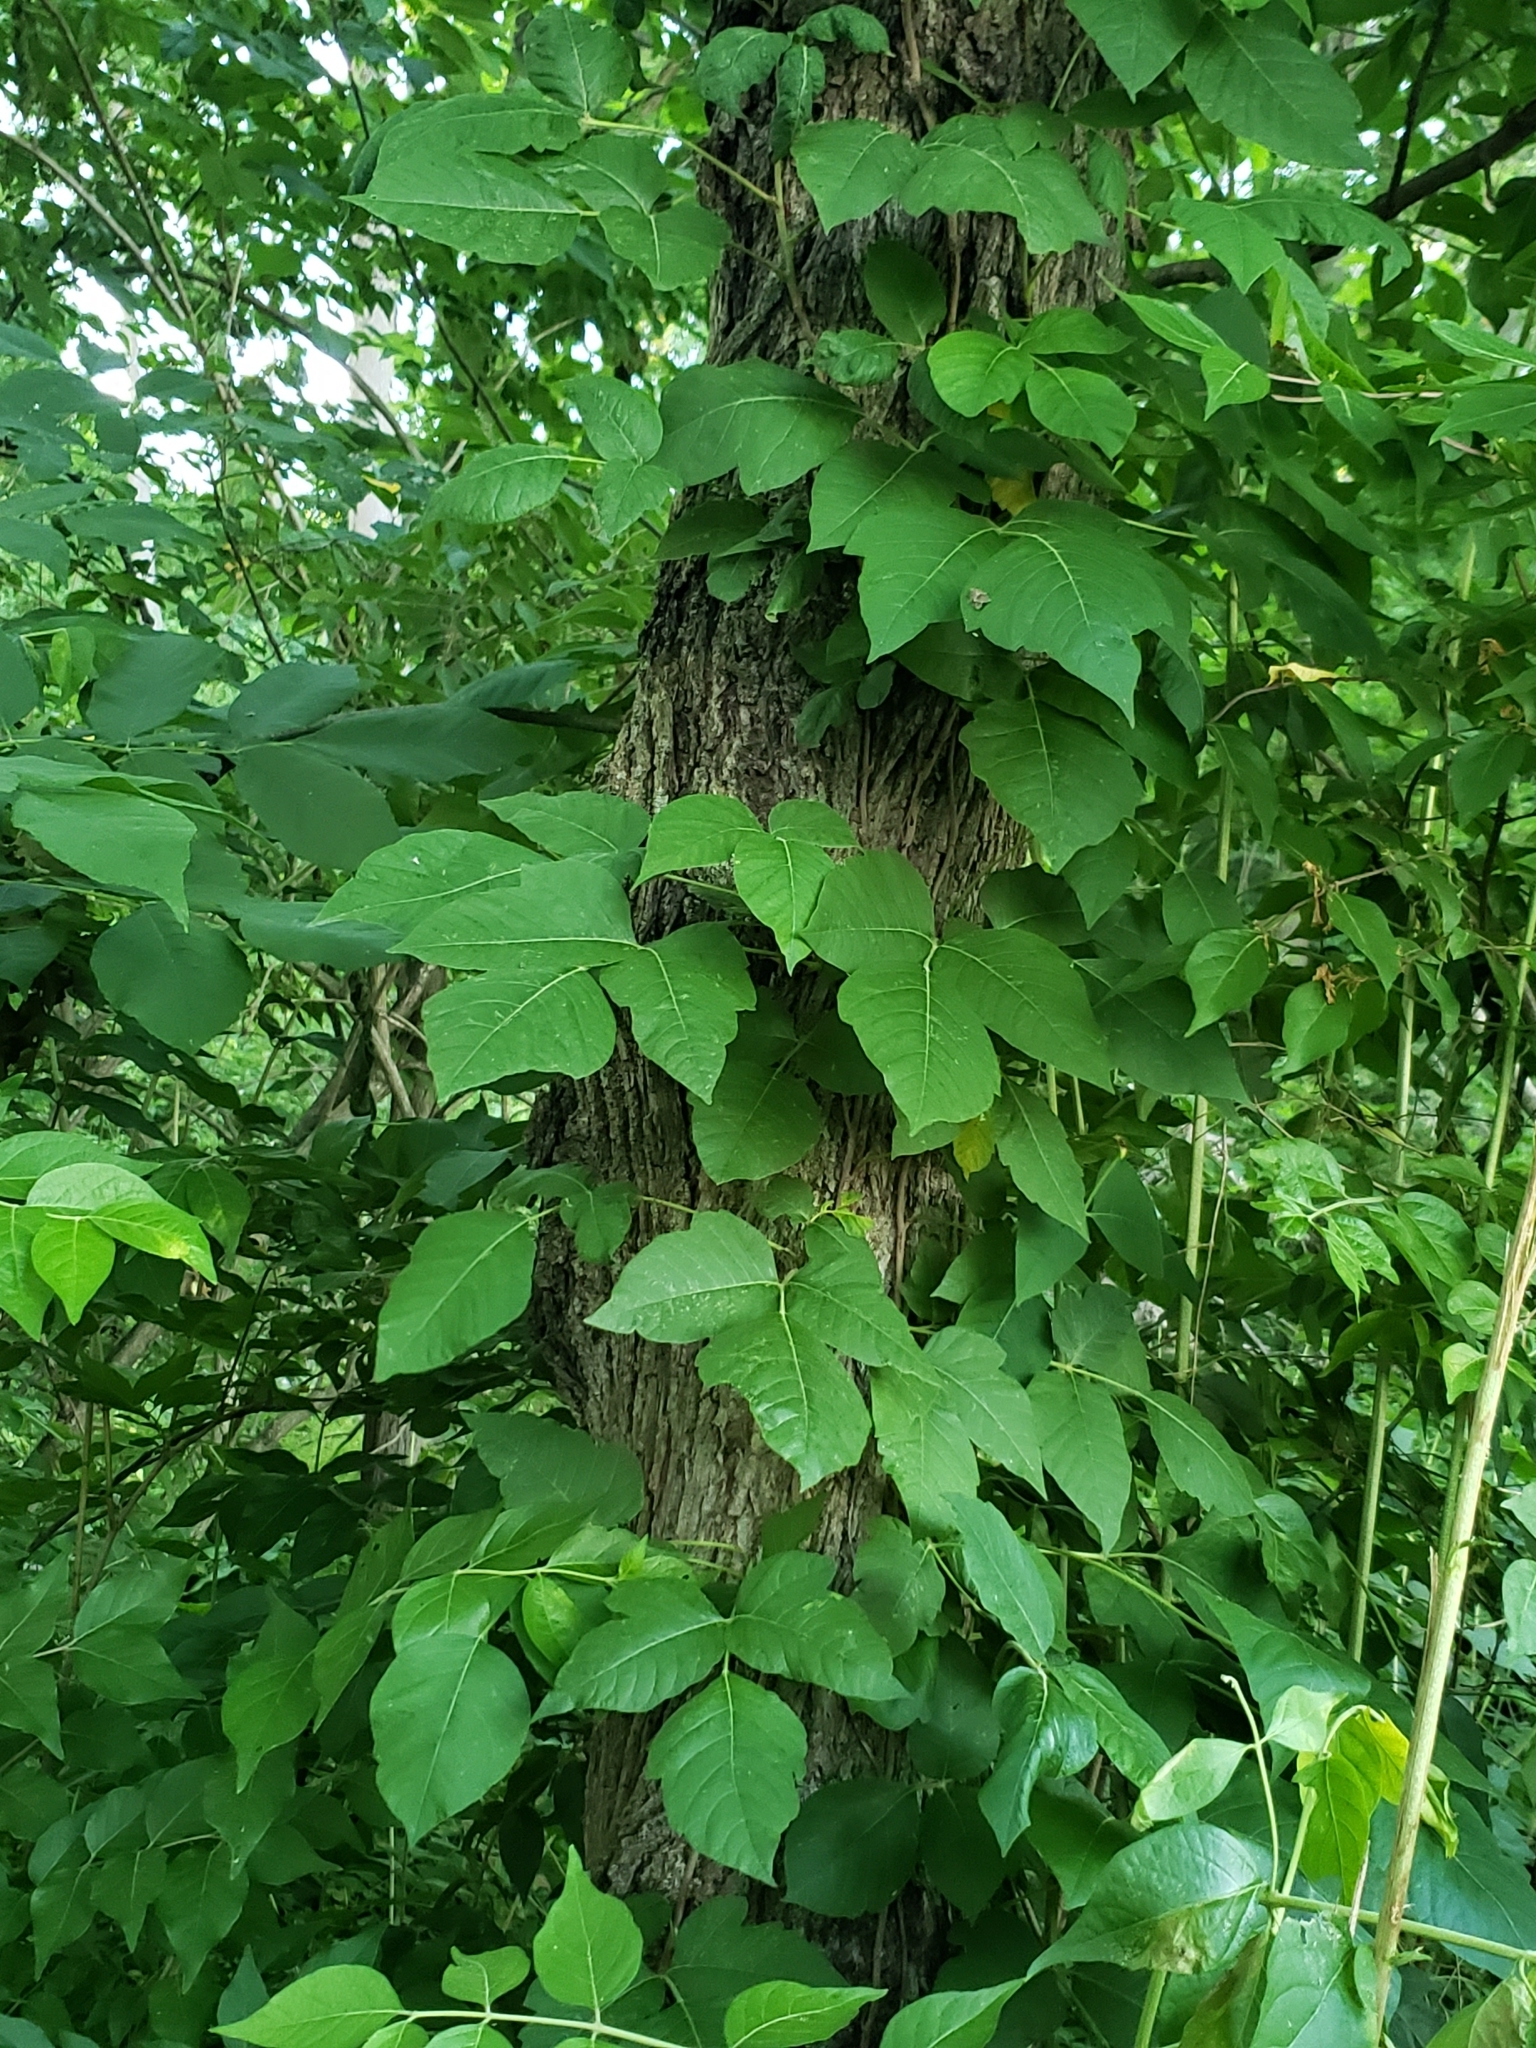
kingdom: Plantae
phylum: Tracheophyta
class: Magnoliopsida
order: Sapindales
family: Anacardiaceae
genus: Toxicodendron
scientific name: Toxicodendron radicans
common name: Poison ivy
